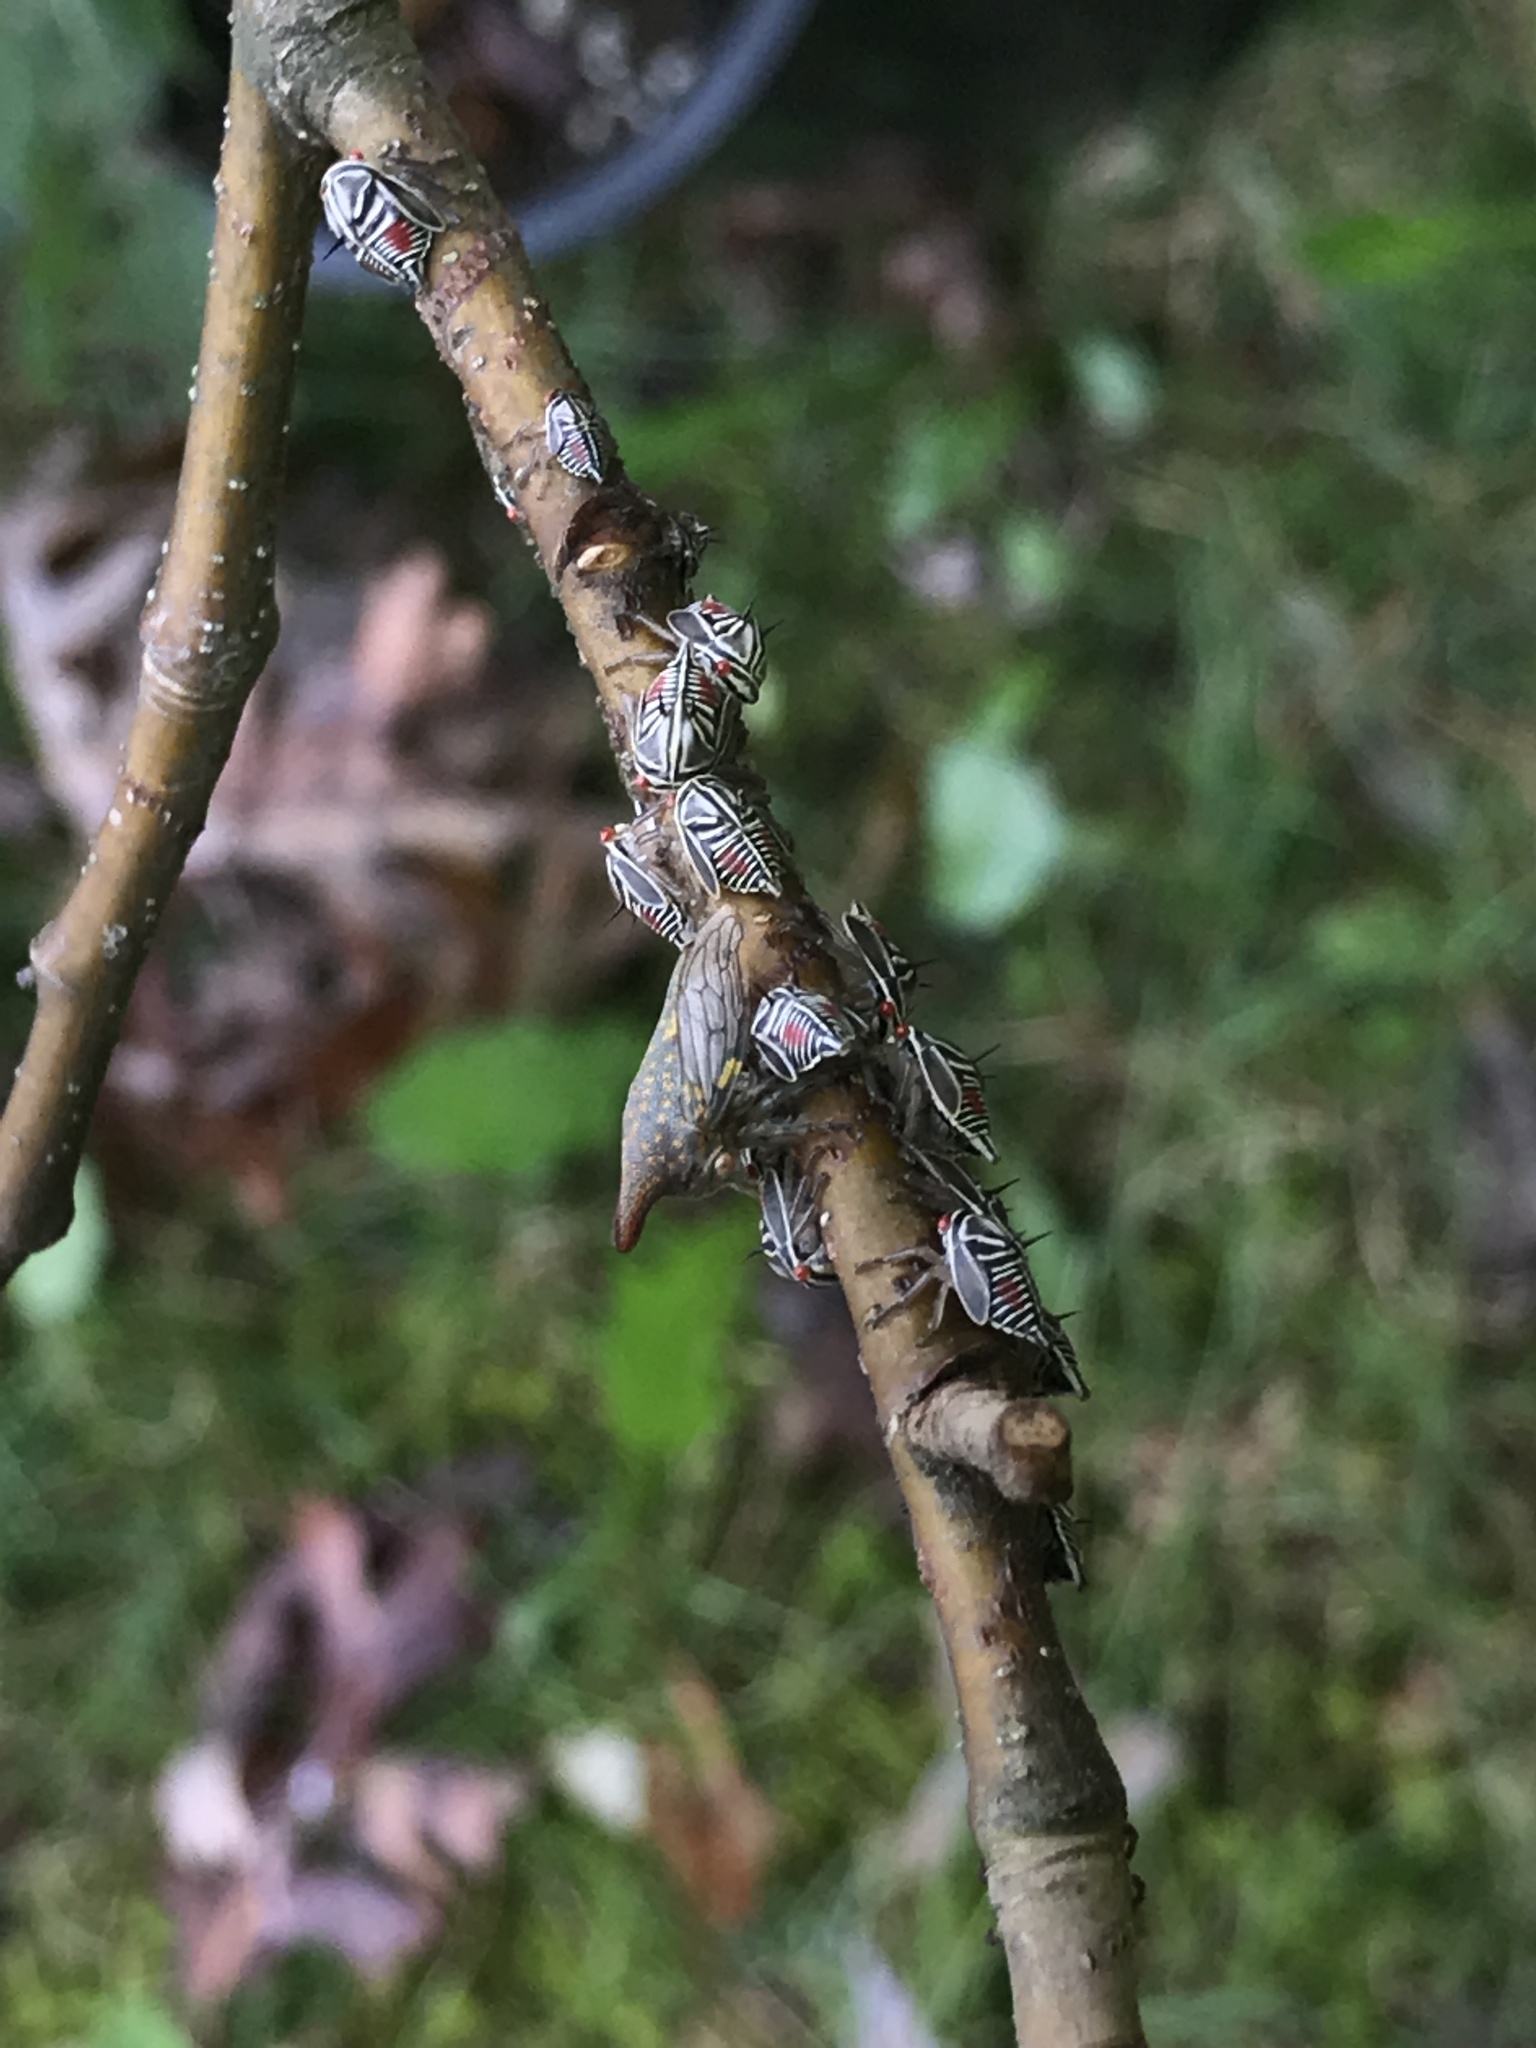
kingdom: Animalia
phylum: Arthropoda
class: Insecta
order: Hemiptera
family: Membracidae
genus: Platycotis
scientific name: Platycotis vittatus
